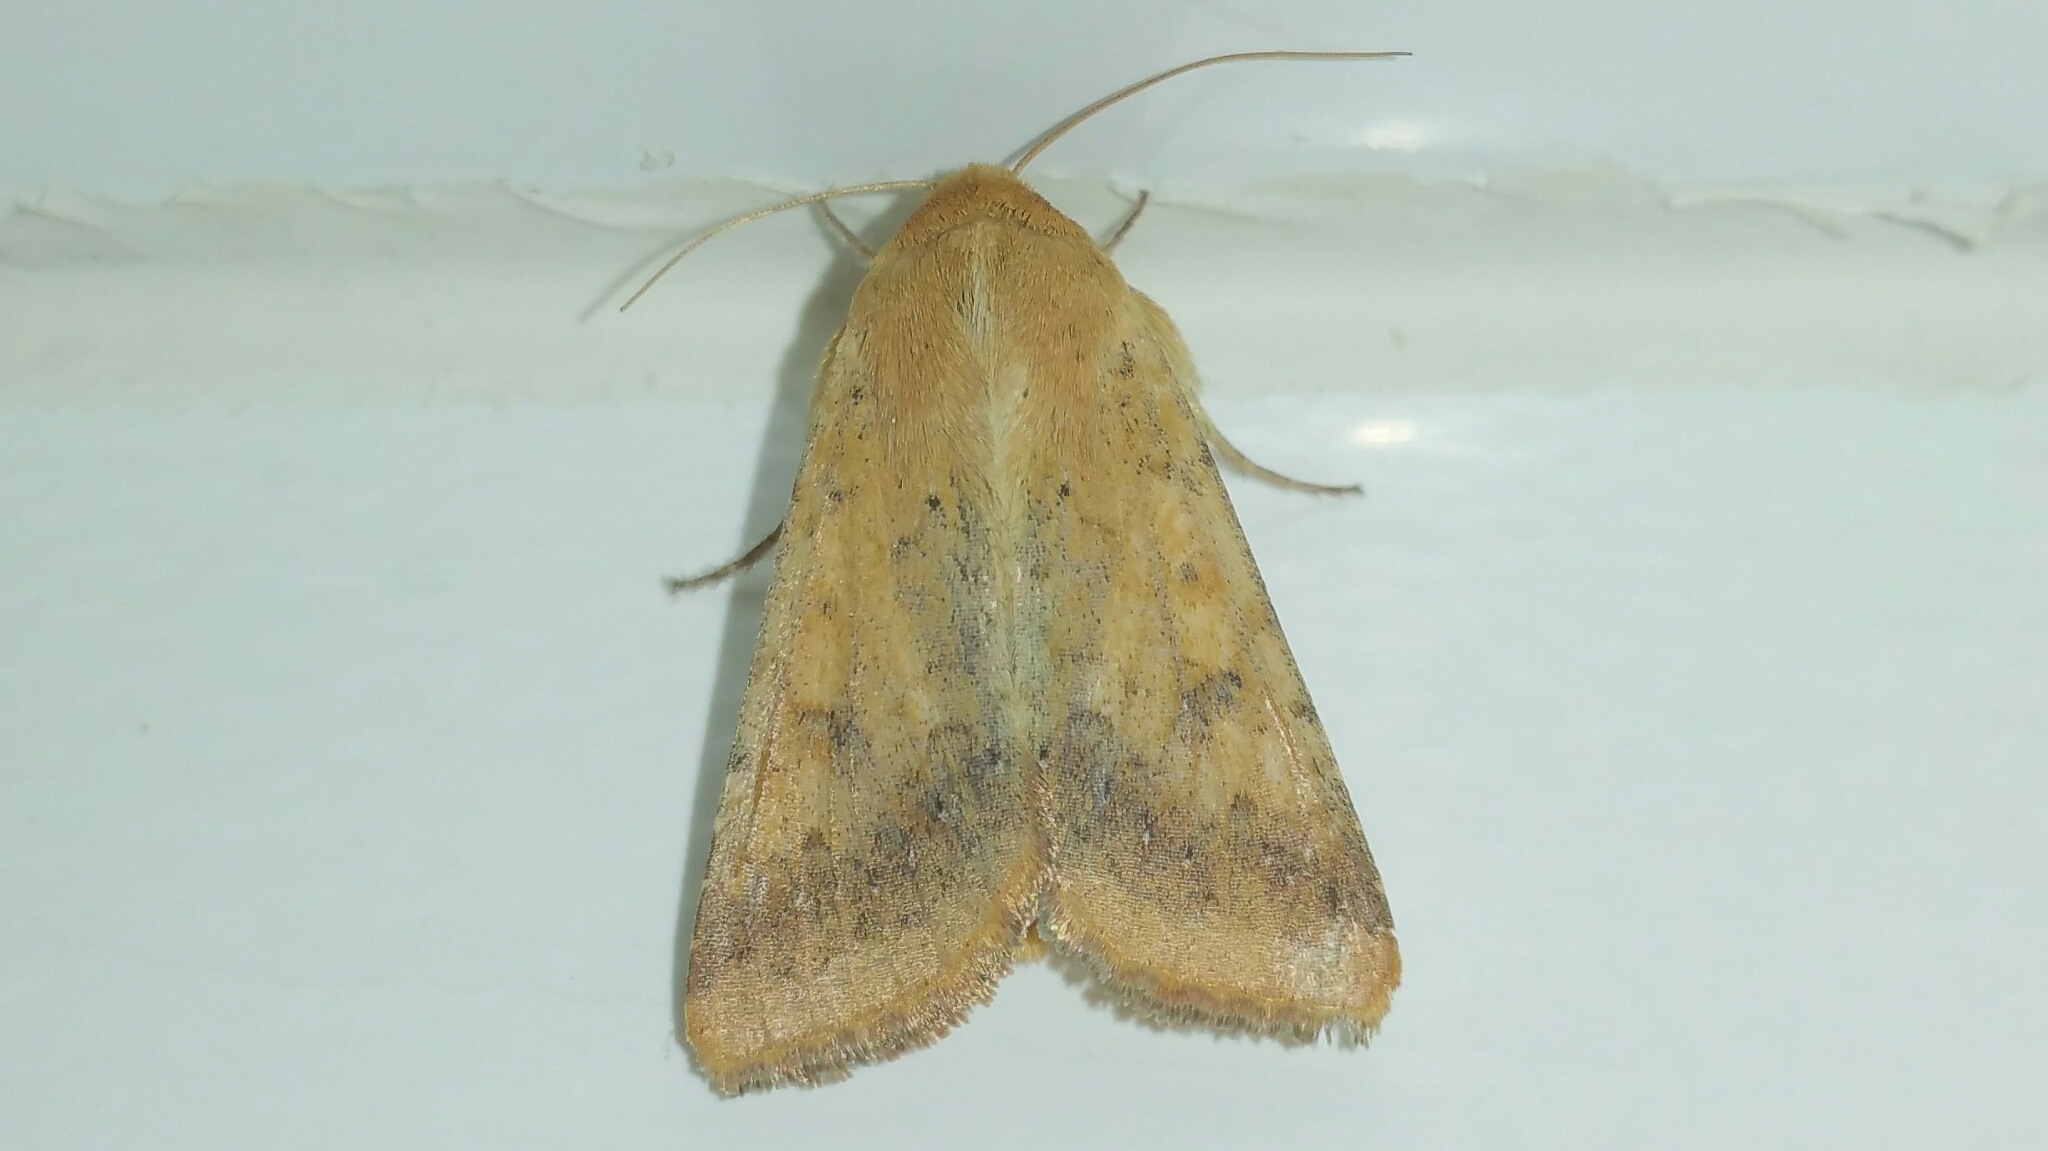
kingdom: Animalia
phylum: Arthropoda
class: Insecta
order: Lepidoptera
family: Noctuidae
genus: Helicoverpa
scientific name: Helicoverpa armigera
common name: Cotton bollworm
